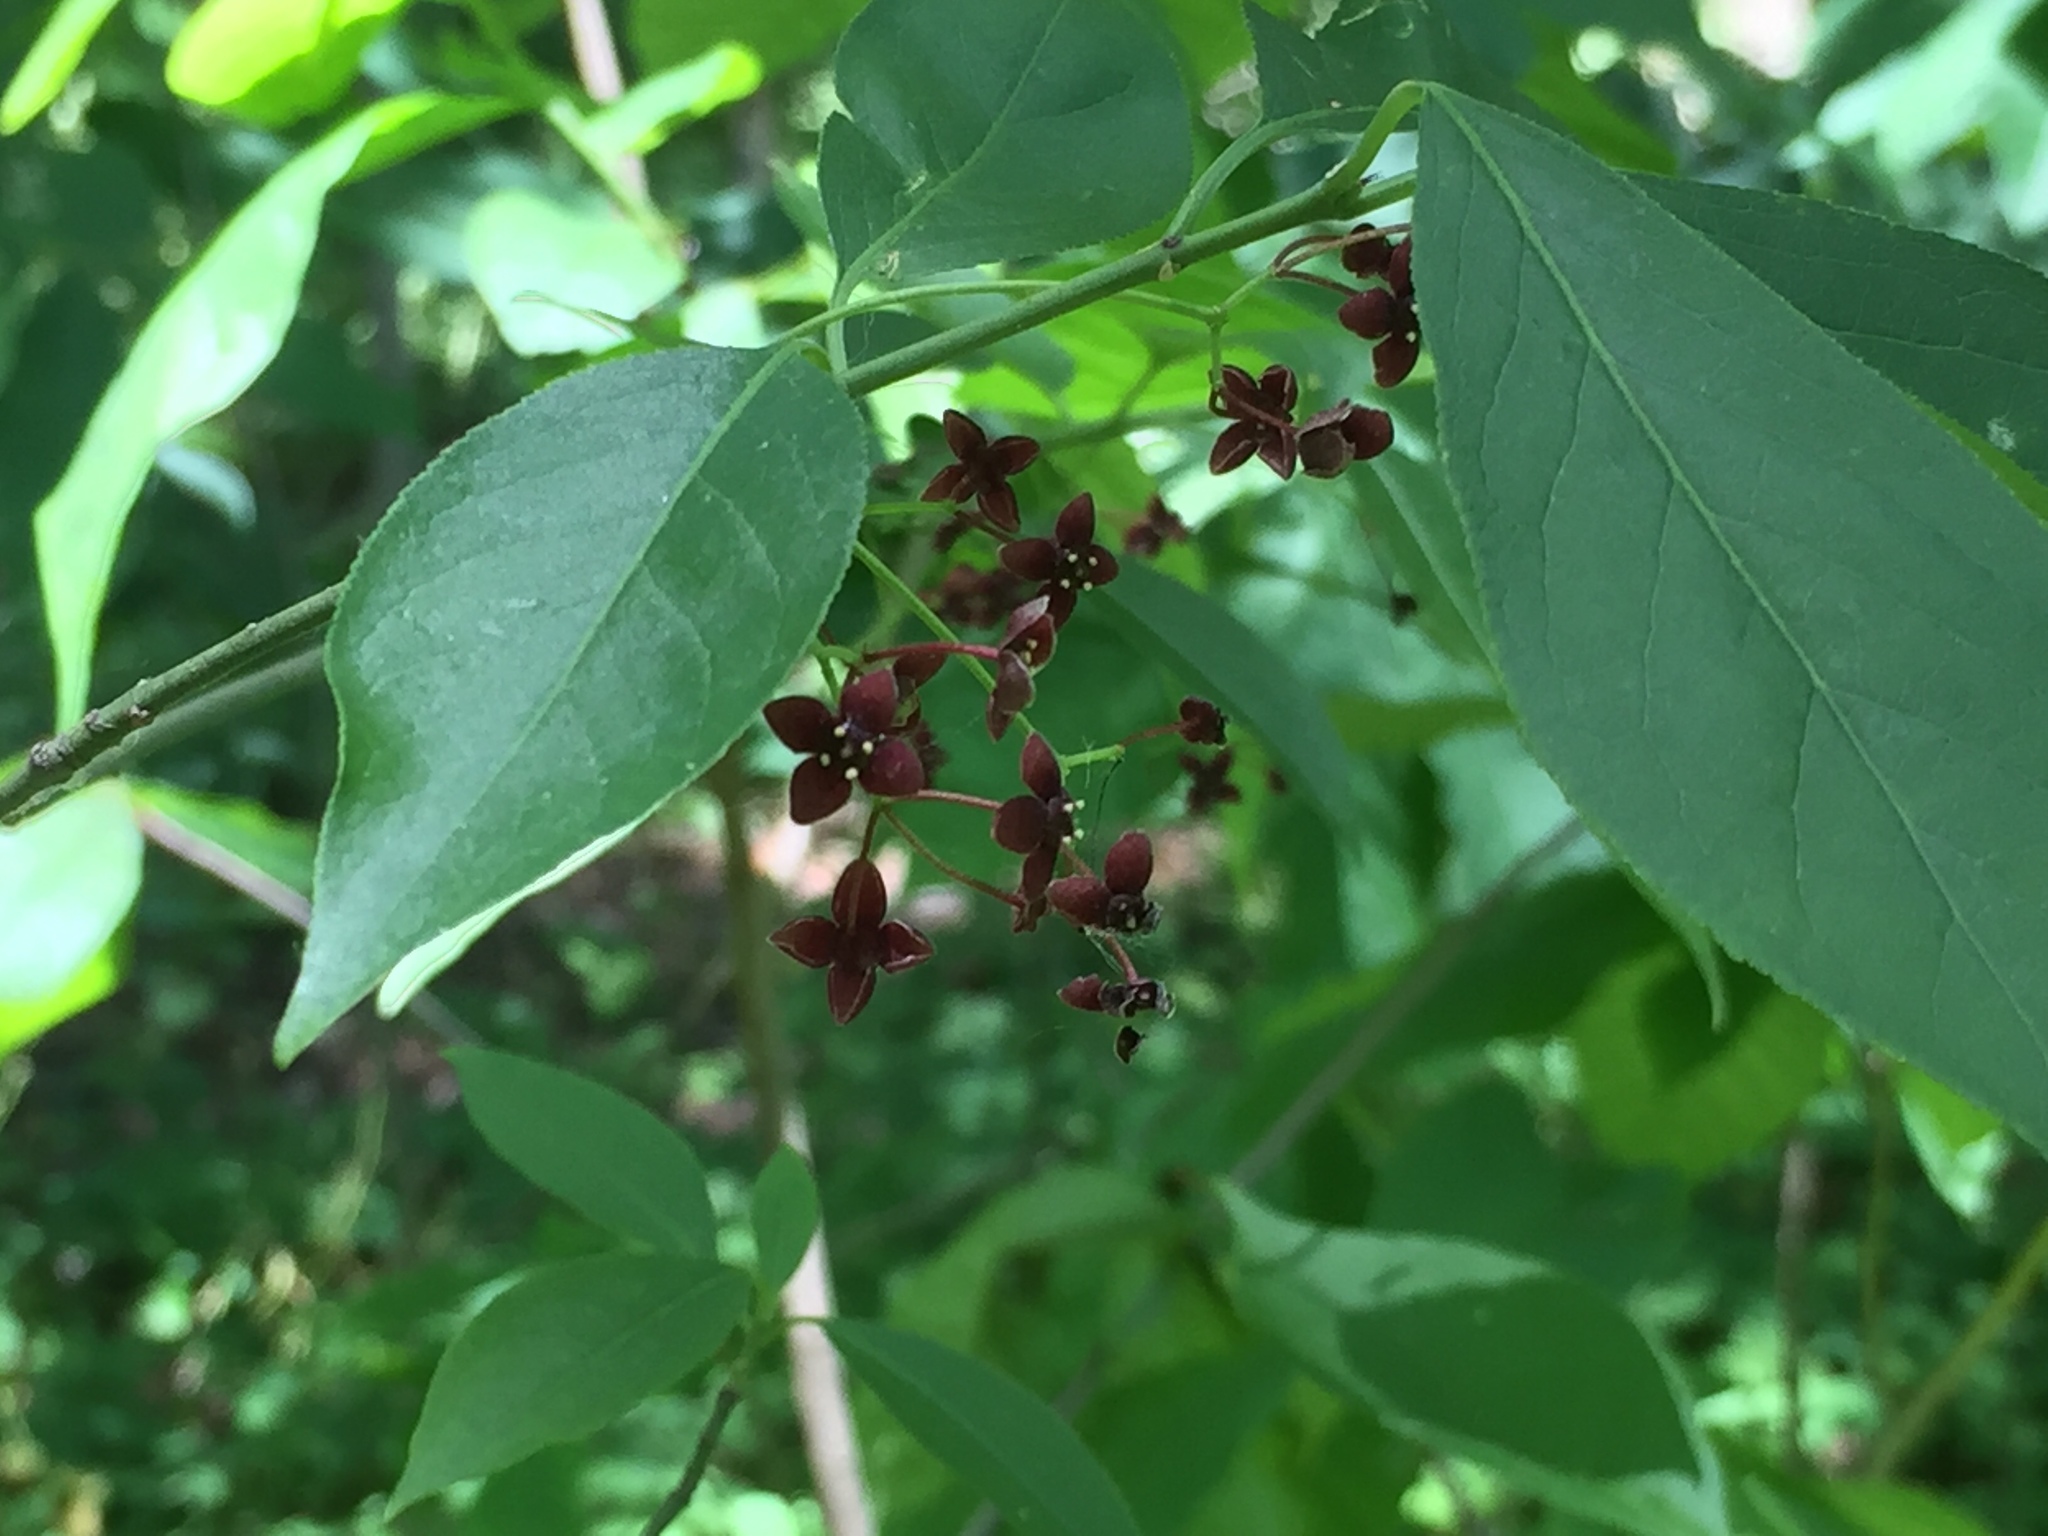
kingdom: Plantae
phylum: Tracheophyta
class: Magnoliopsida
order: Celastrales
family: Celastraceae
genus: Euonymus
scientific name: Euonymus atropurpureus
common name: Eastern wahoo
